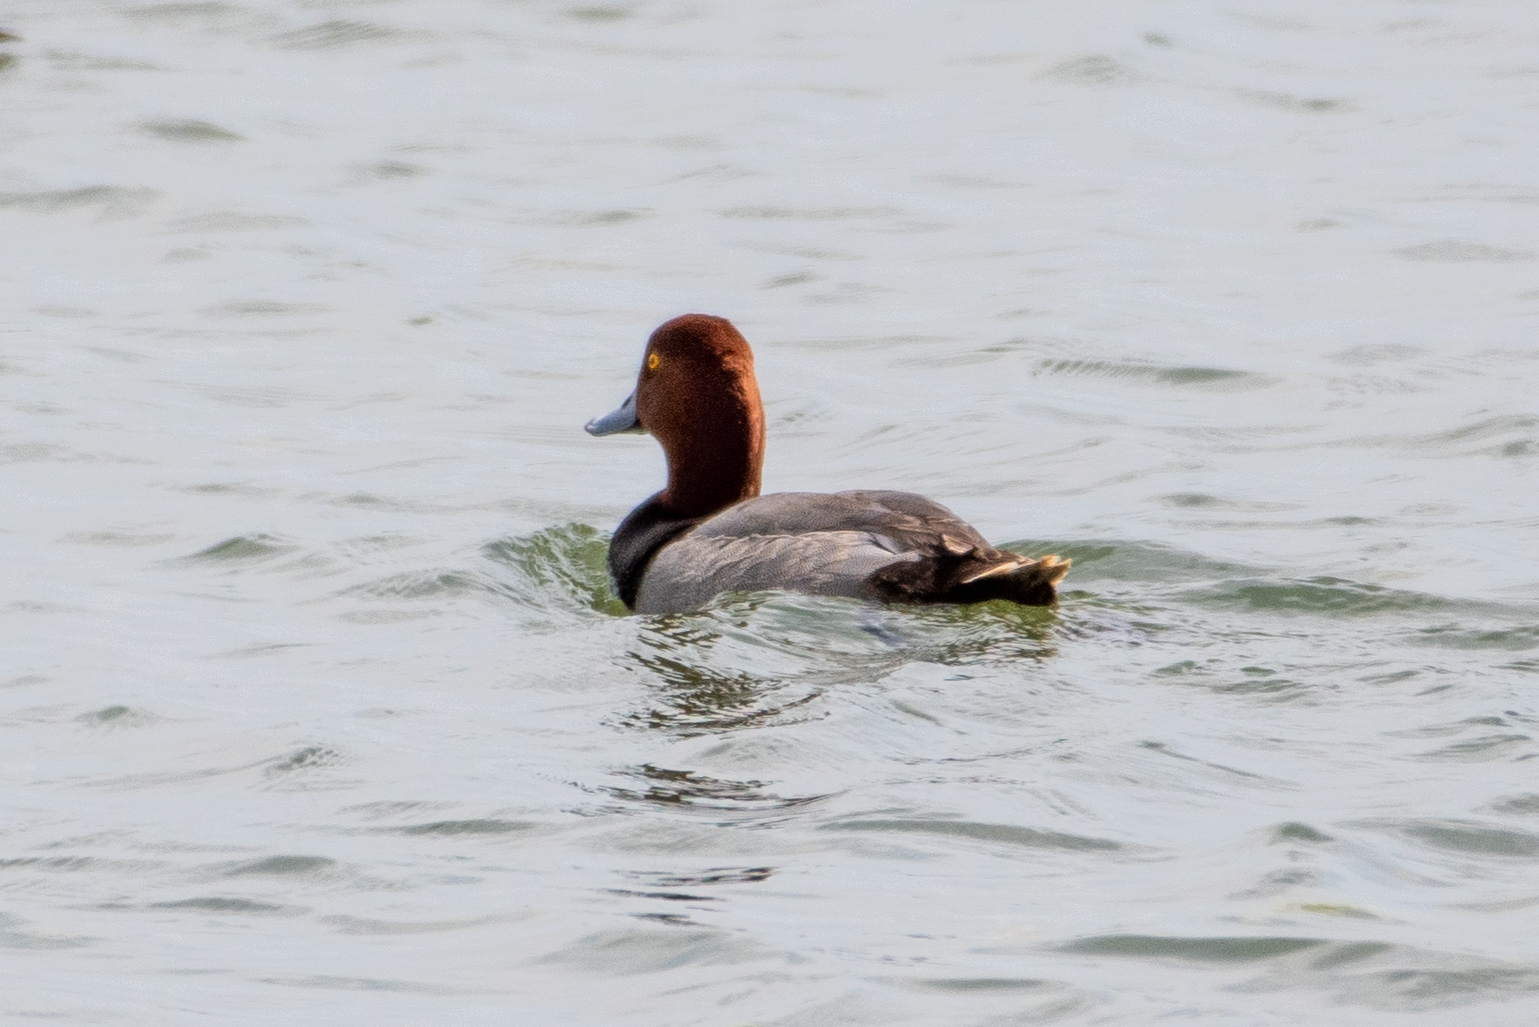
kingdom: Animalia
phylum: Chordata
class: Aves
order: Anseriformes
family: Anatidae
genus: Aythya
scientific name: Aythya americana
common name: Redhead
